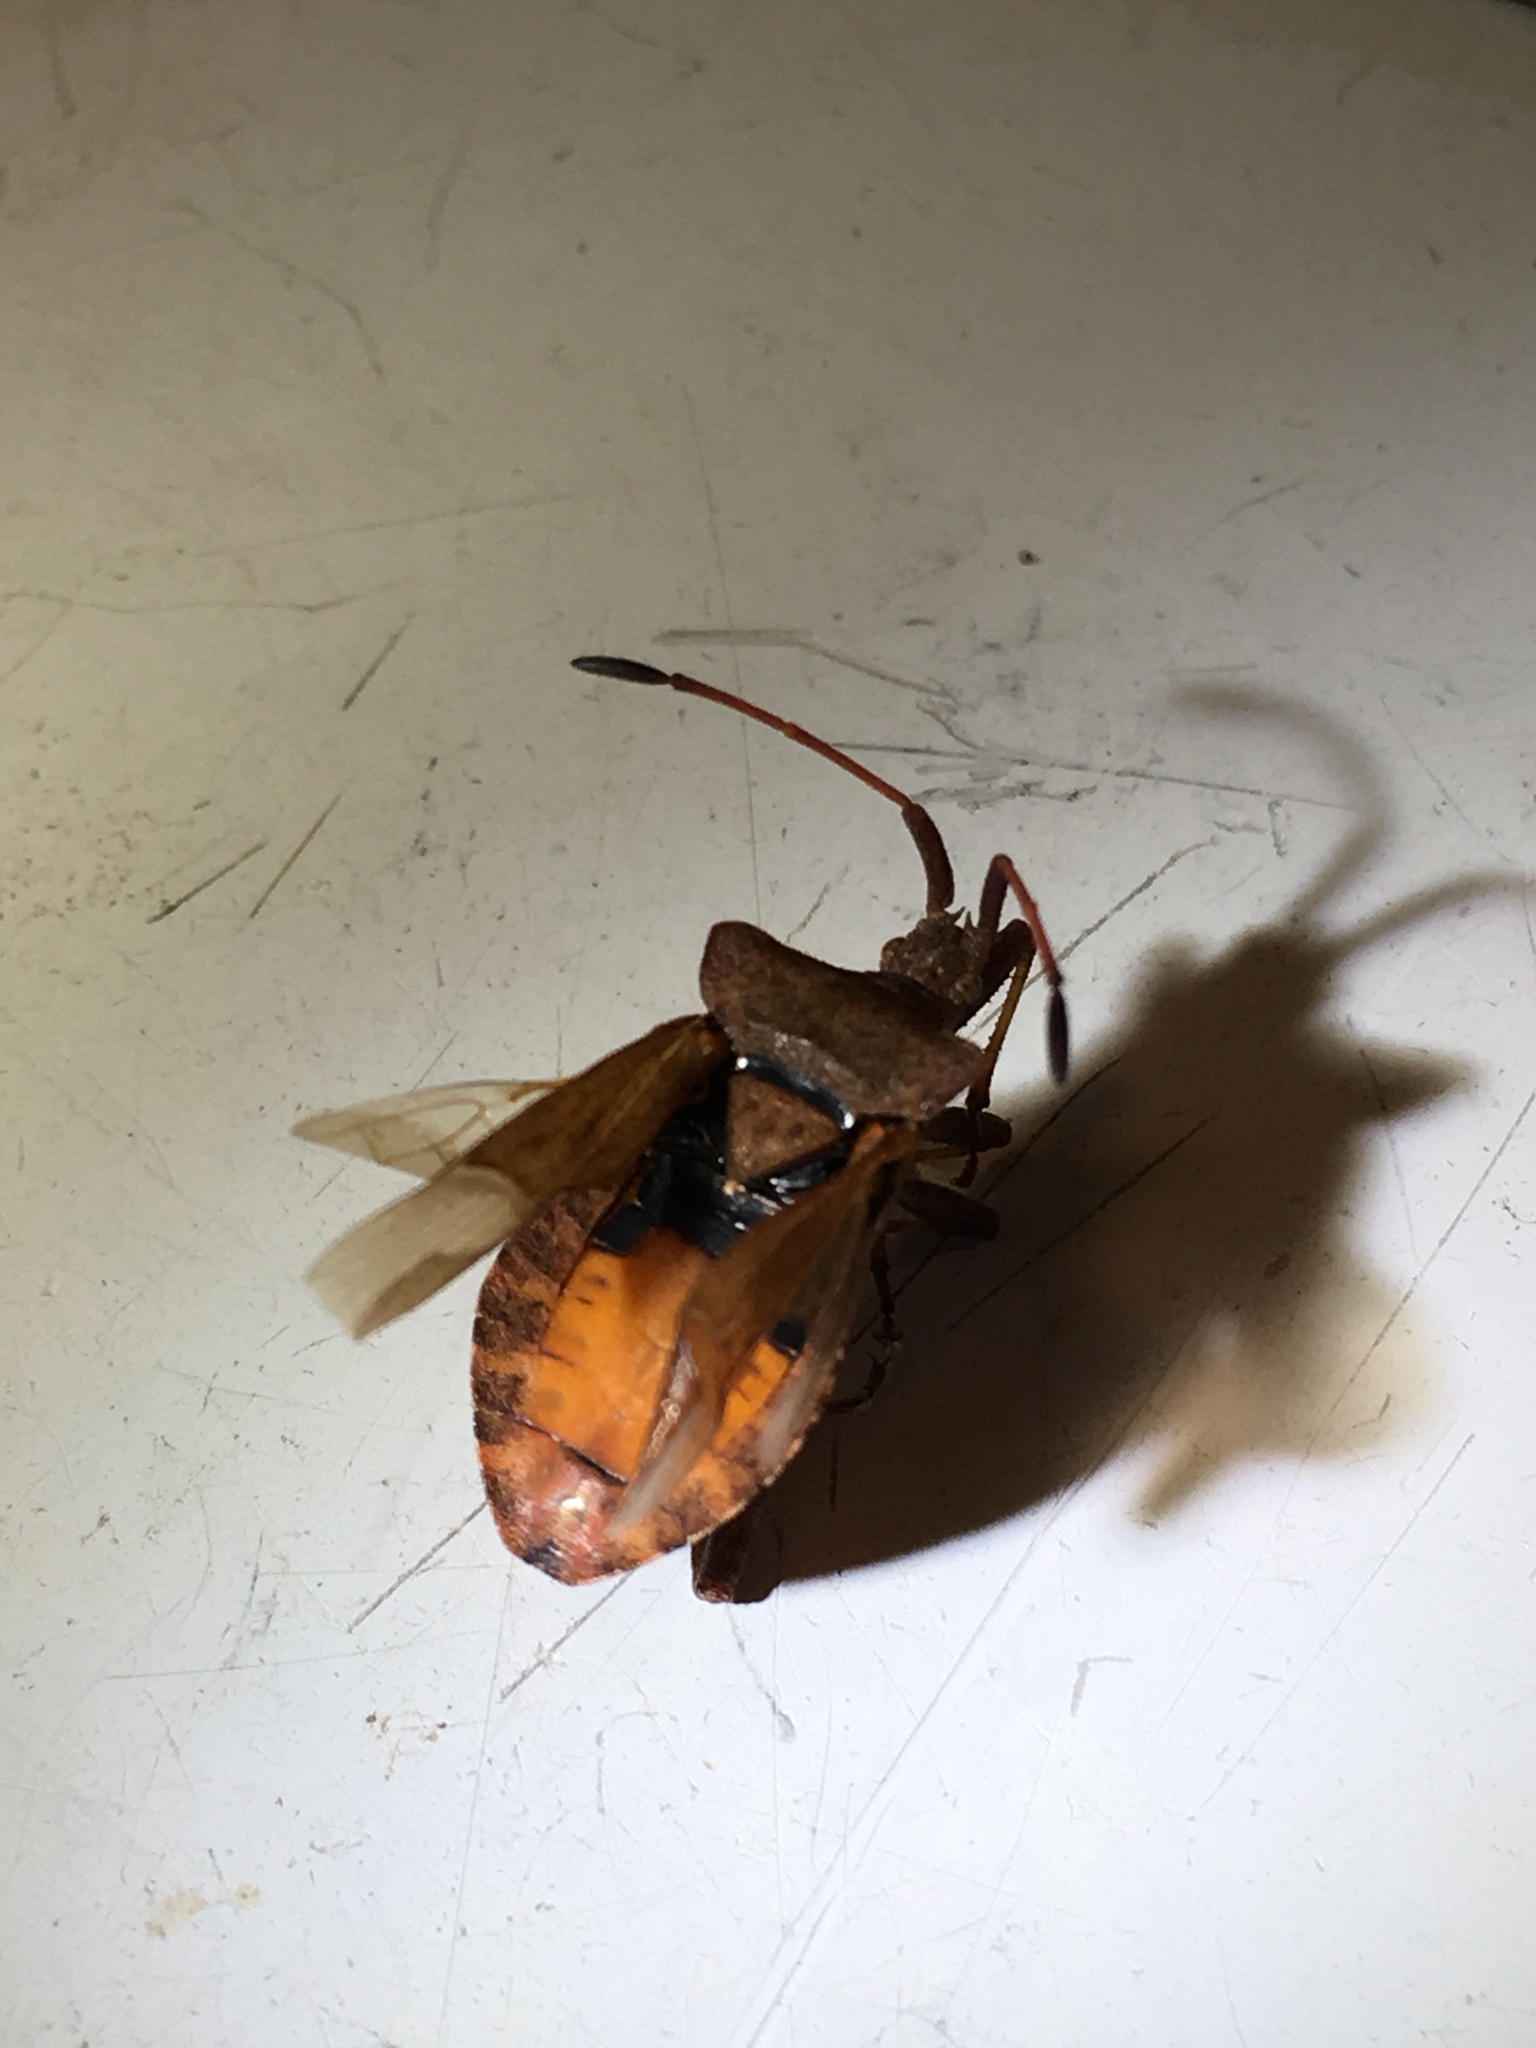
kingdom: Animalia
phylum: Arthropoda
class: Insecta
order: Hemiptera
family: Coreidae
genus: Coreus
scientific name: Coreus marginatus
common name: Dock bug
